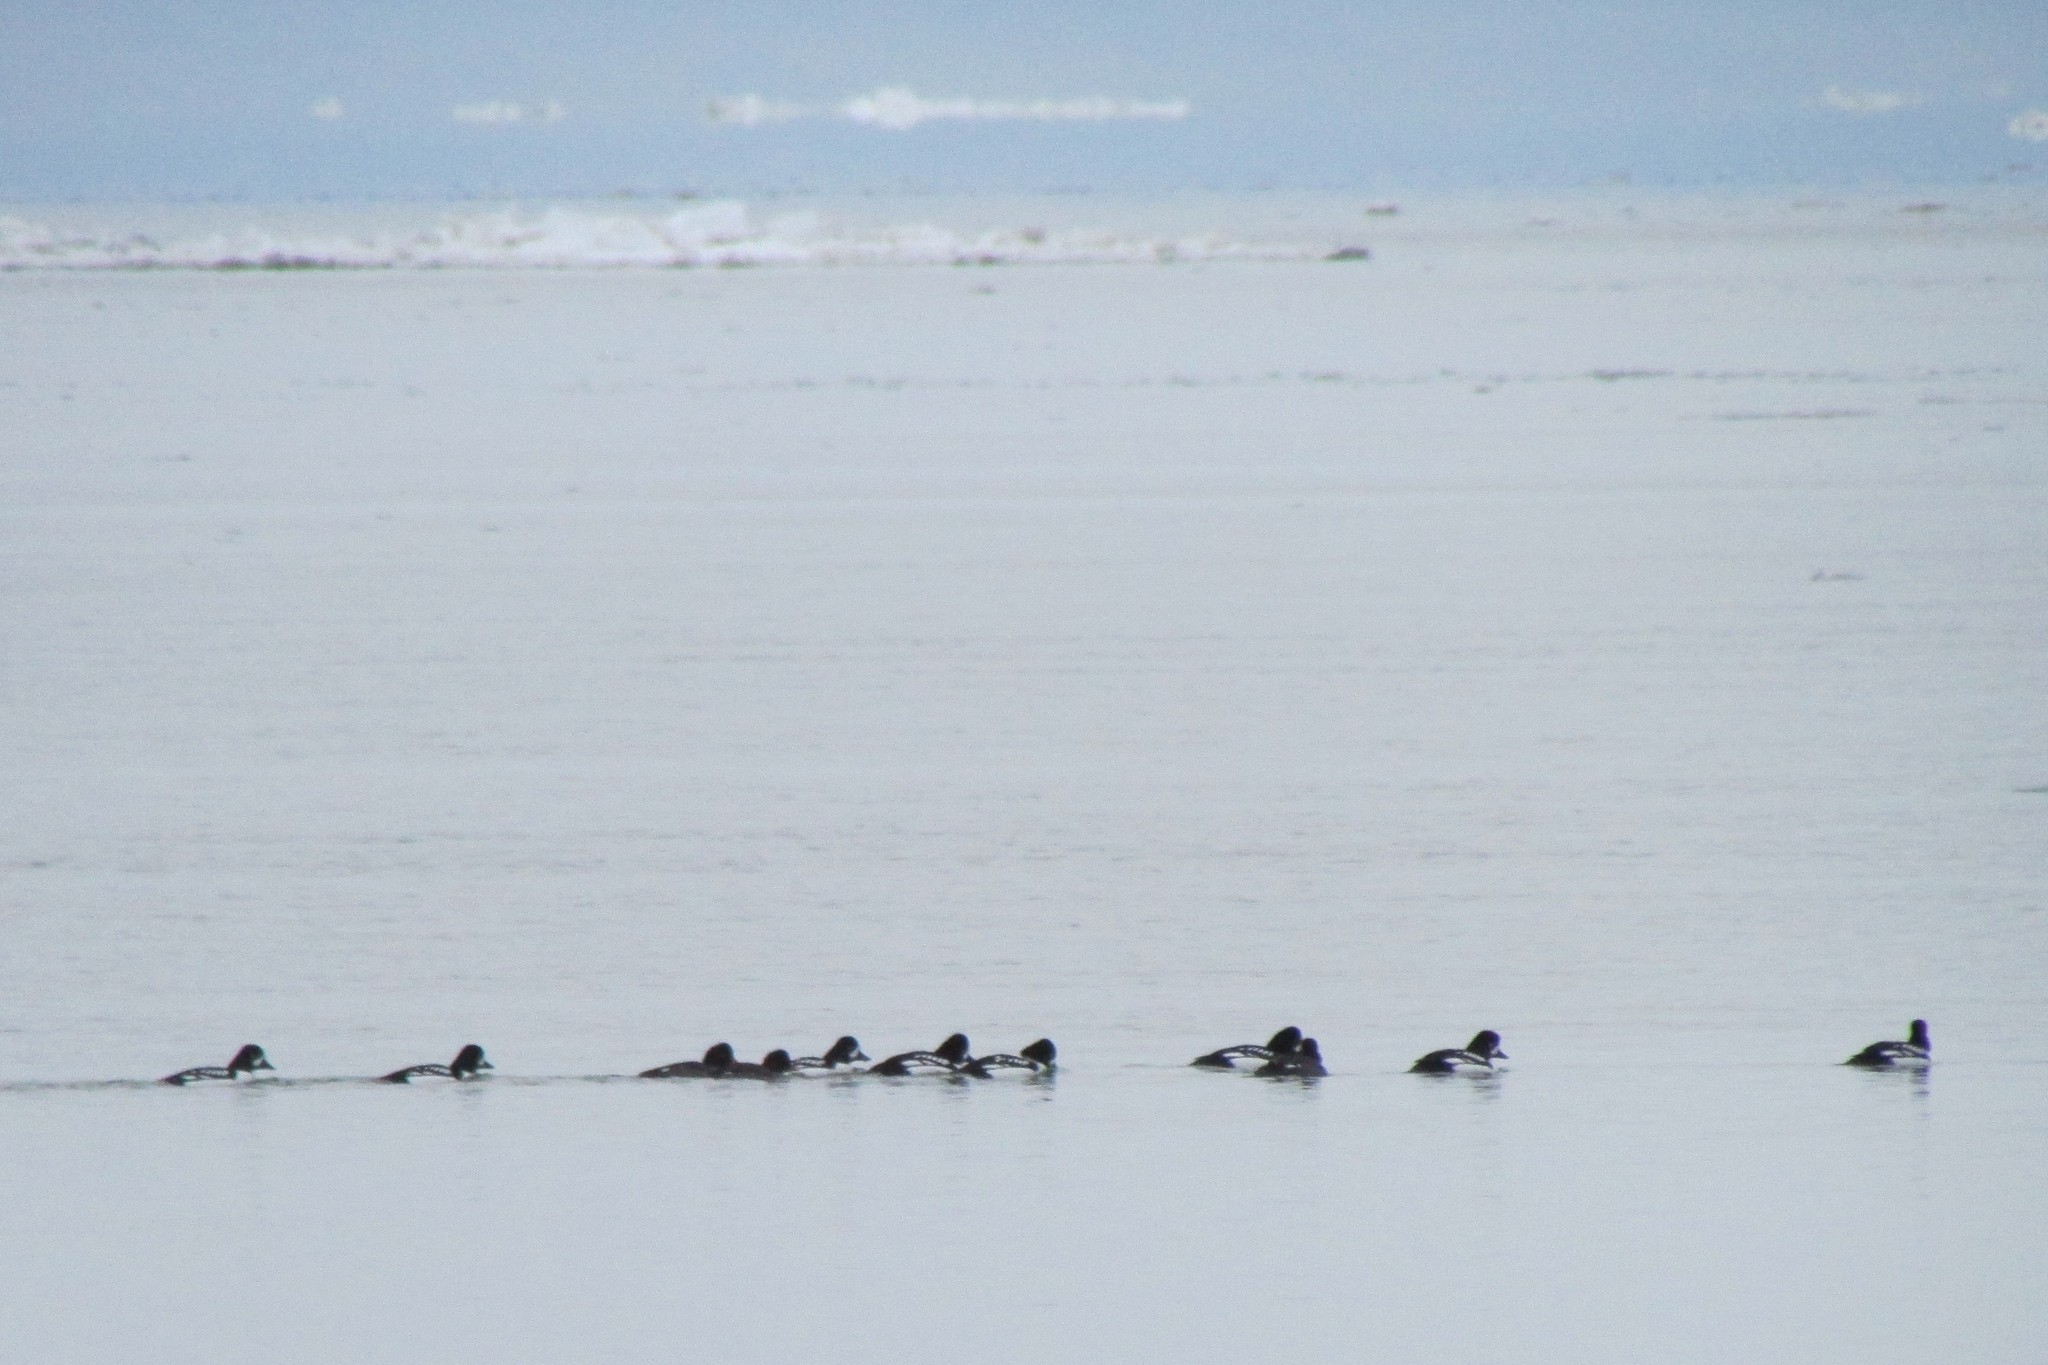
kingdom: Animalia
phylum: Chordata
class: Aves
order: Anseriformes
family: Anatidae
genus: Bucephala
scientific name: Bucephala islandica
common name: Barrow's goldeneye
